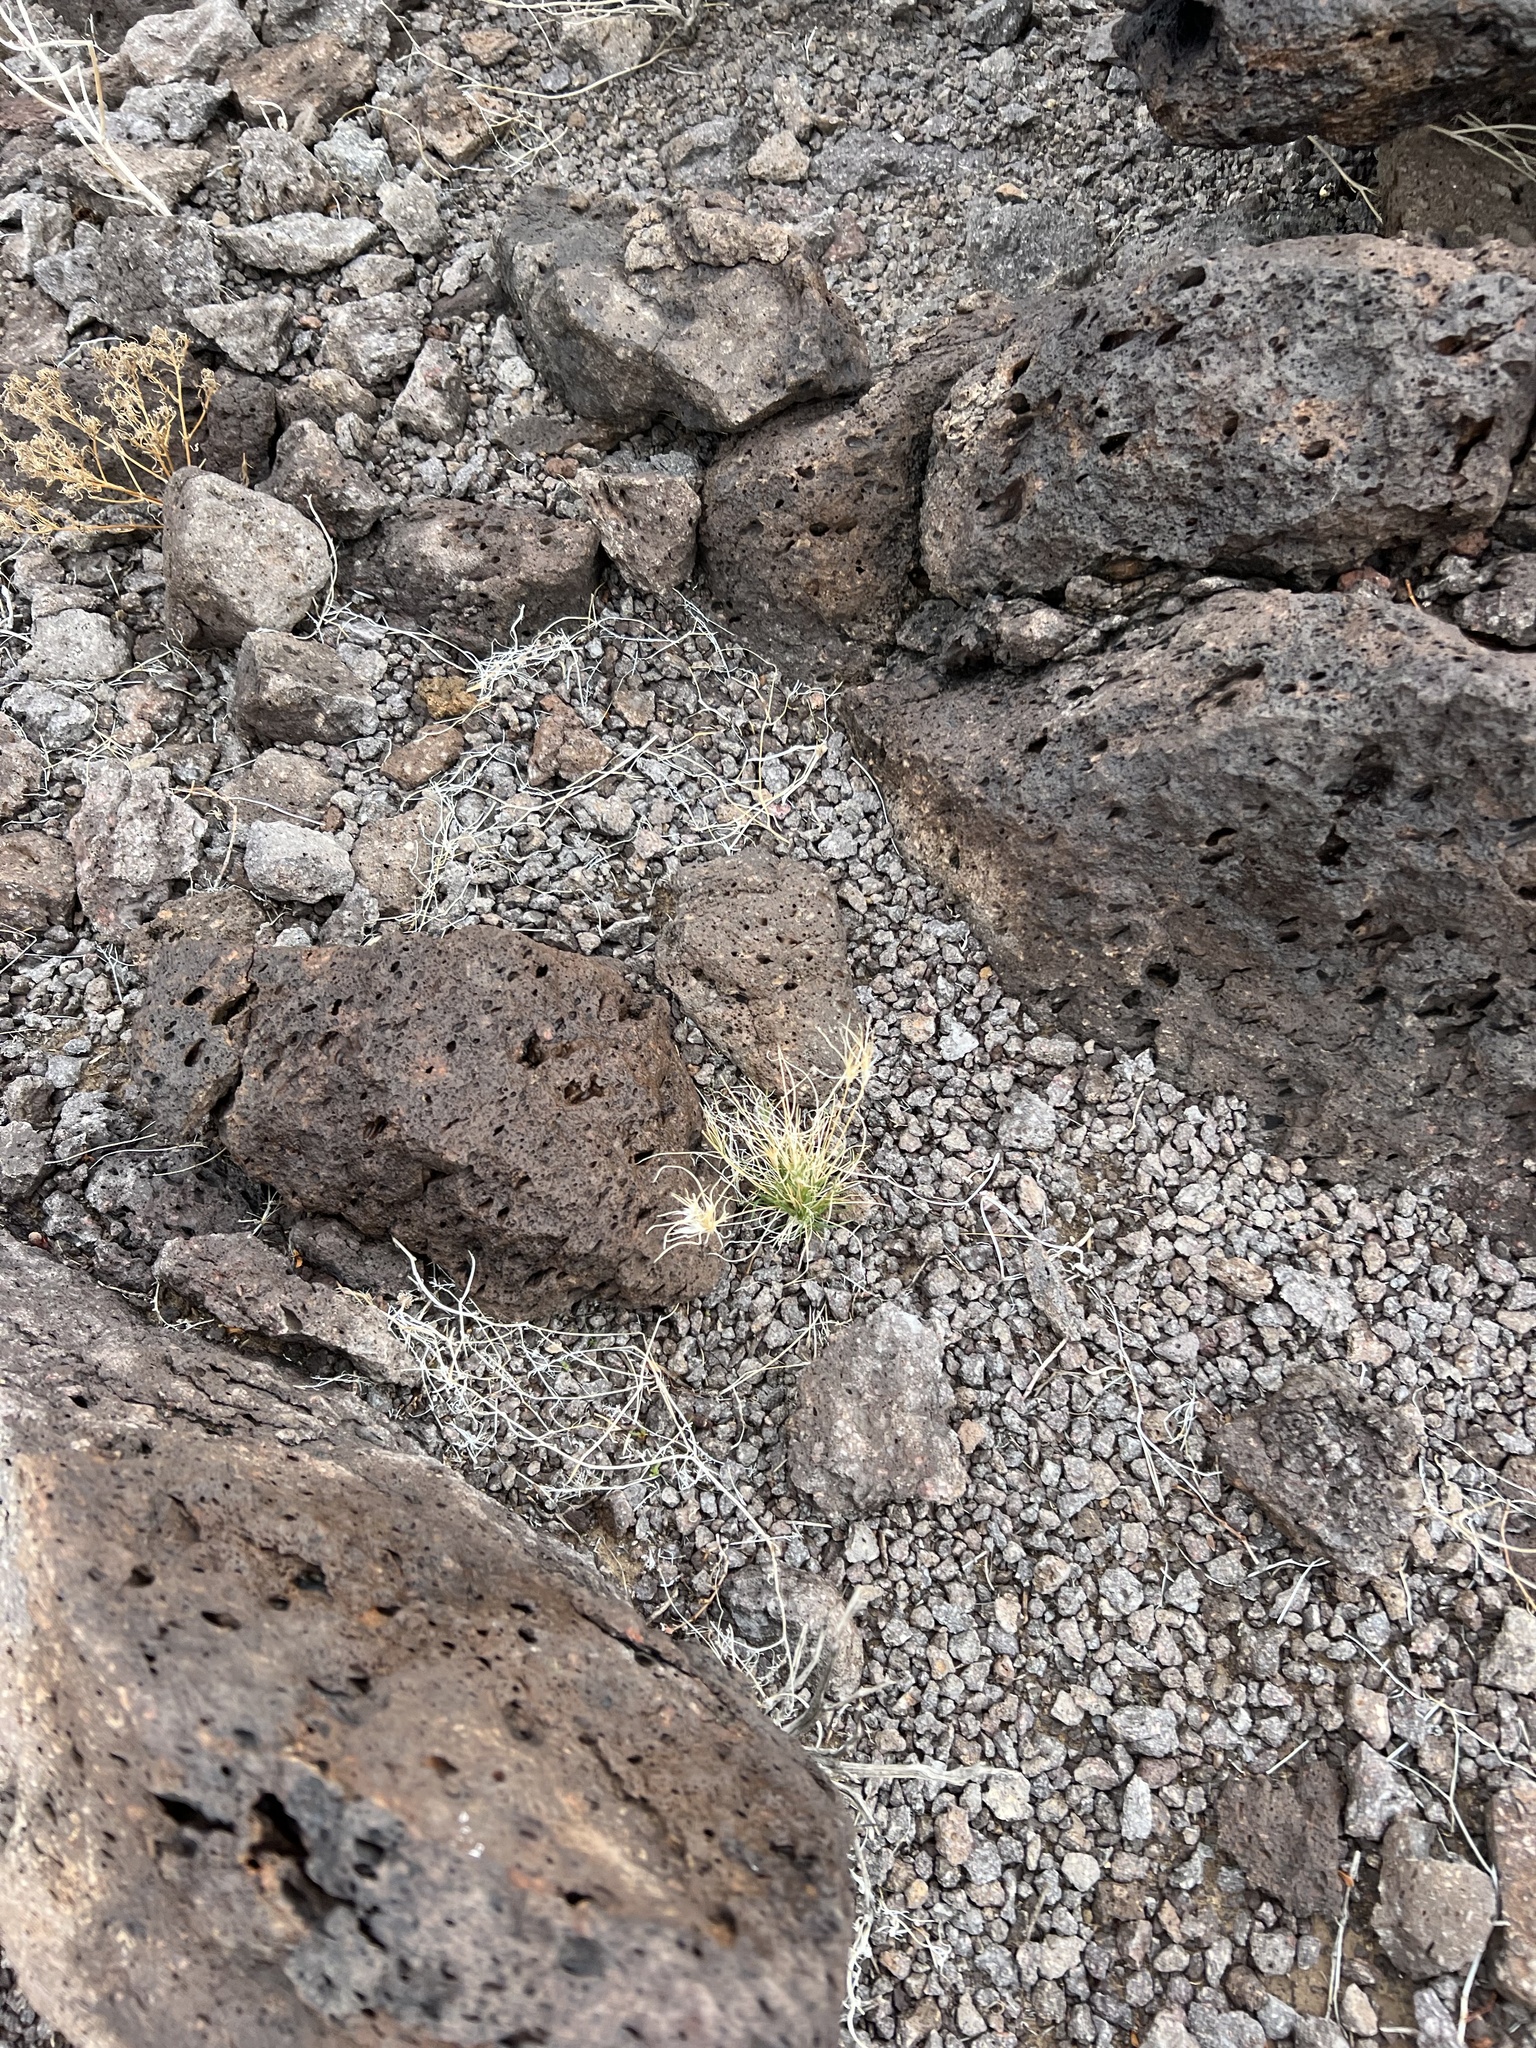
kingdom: Plantae
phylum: Tracheophyta
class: Liliopsida
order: Poales
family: Poaceae
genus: Dasyochloa
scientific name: Dasyochloa pulchella
